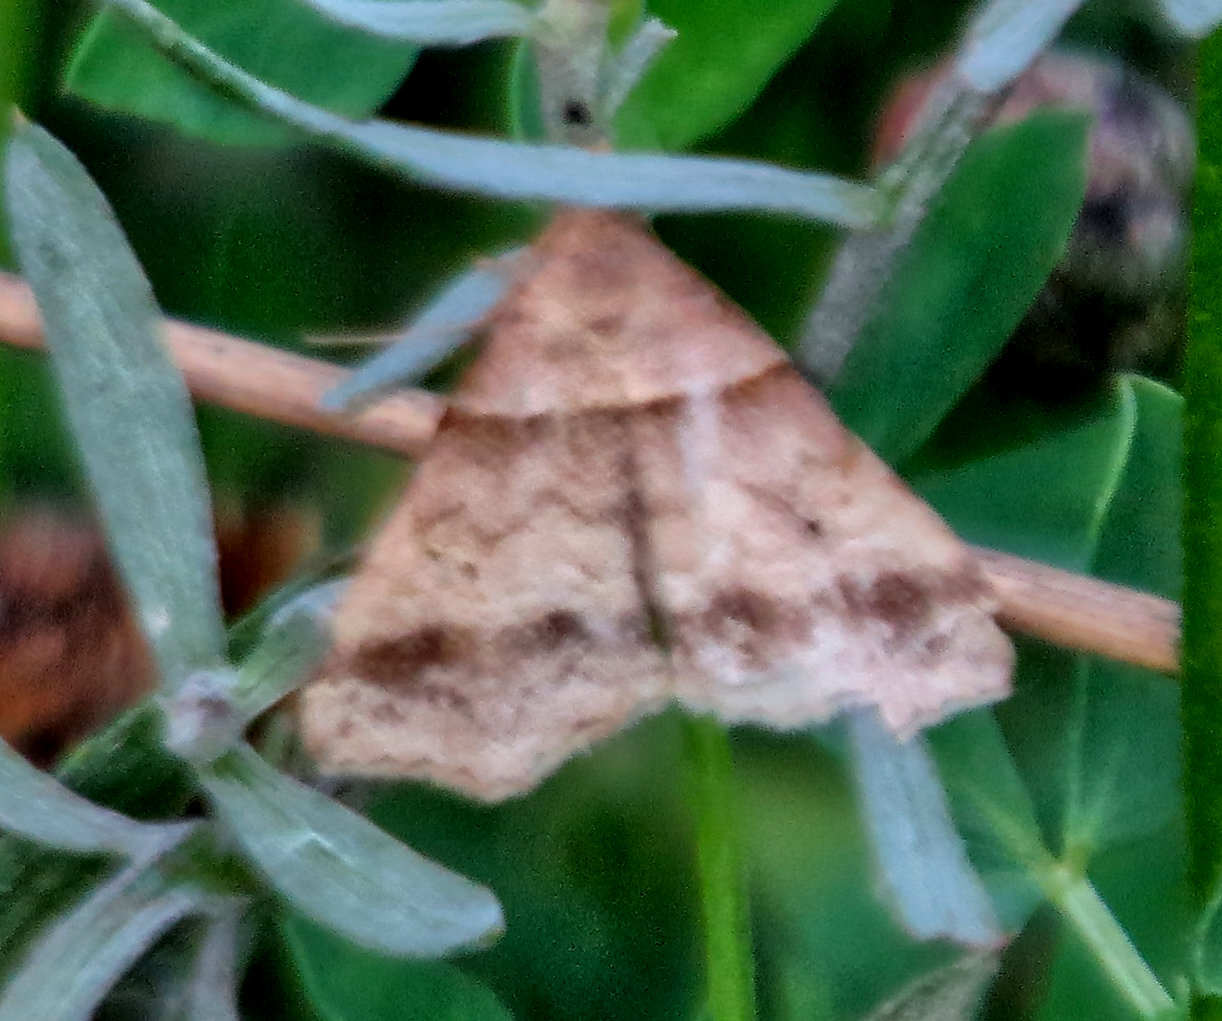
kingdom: Animalia
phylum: Arthropoda
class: Insecta
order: Lepidoptera
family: Erebidae
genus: Phaeolita
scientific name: Phaeolita pyramusalis
